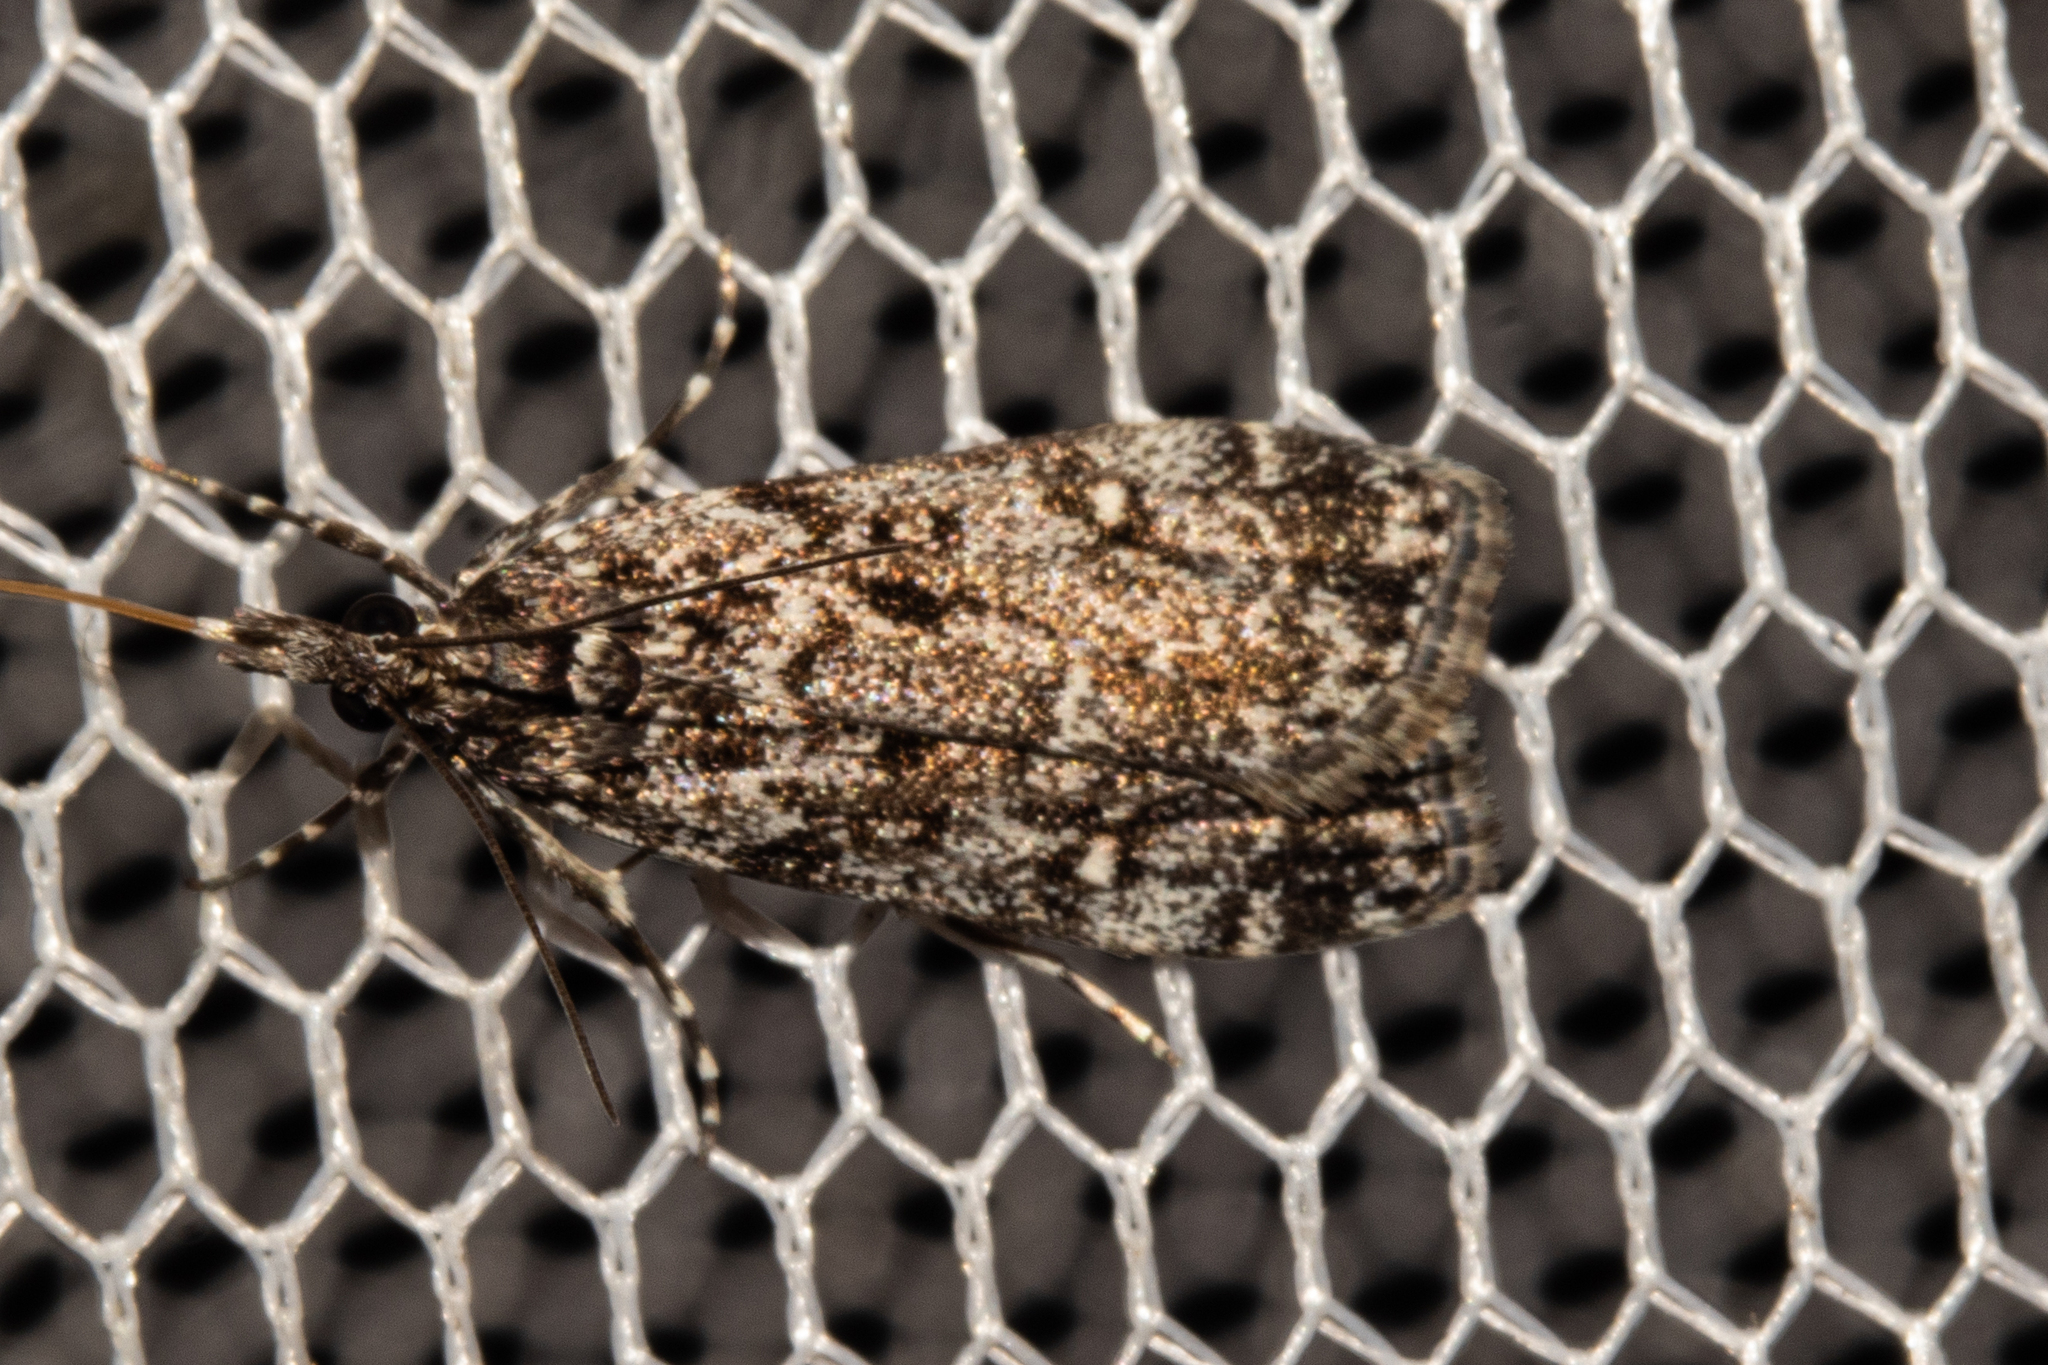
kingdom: Animalia
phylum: Arthropoda
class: Insecta
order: Lepidoptera
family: Crambidae
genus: Eudonia
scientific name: Eudonia philerga
